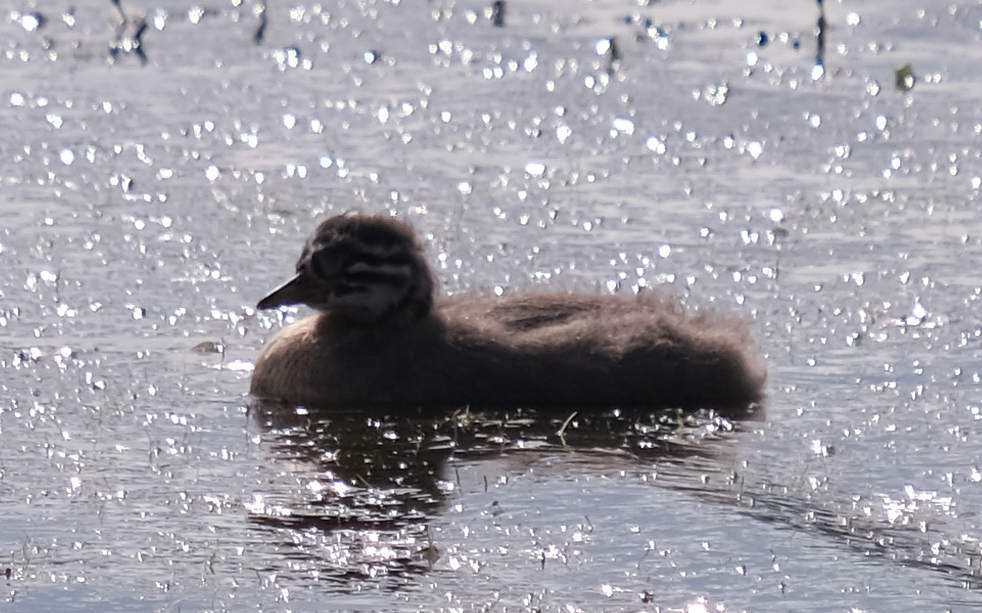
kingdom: Animalia
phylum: Chordata
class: Aves
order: Podicipediformes
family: Podicipedidae
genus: Podiceps
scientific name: Podiceps grisegena
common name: Red-necked grebe
